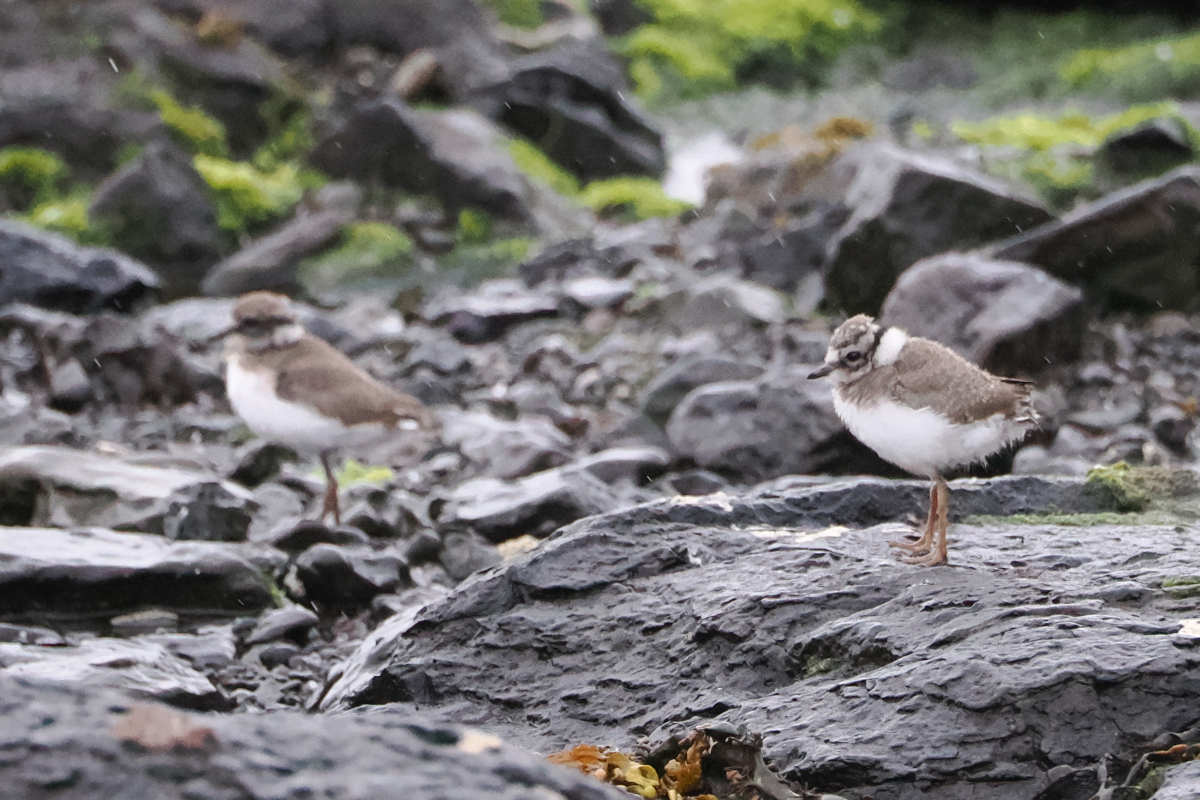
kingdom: Animalia
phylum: Chordata
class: Aves
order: Charadriiformes
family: Charadriidae
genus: Charadrius
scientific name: Charadrius hiaticula
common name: Common ringed plover
